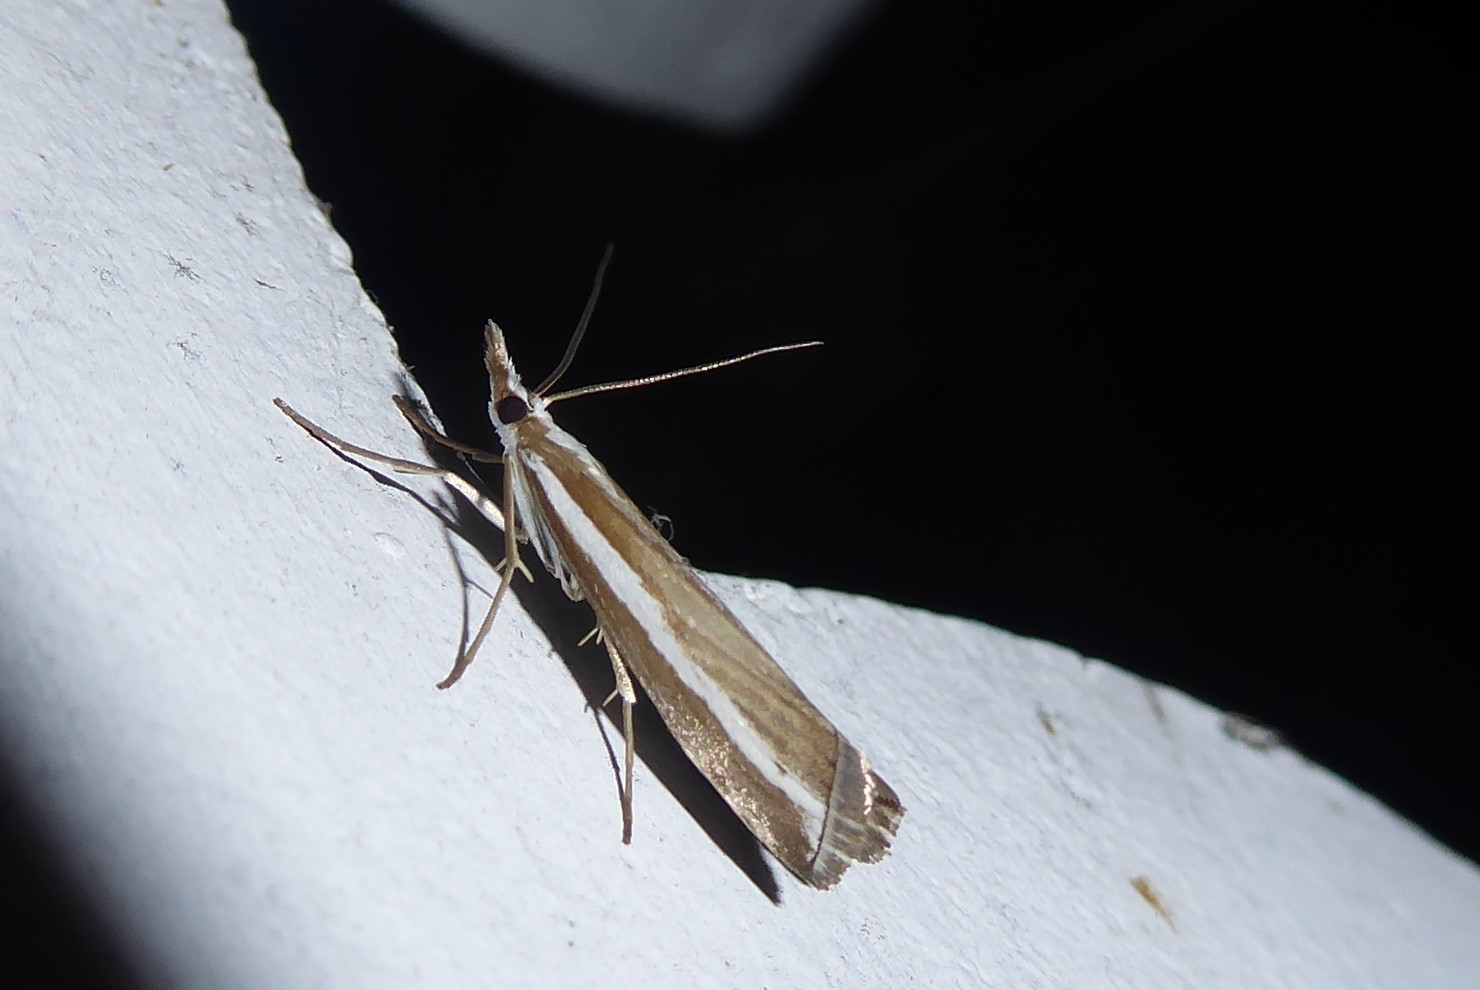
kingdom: Animalia
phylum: Arthropoda
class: Insecta
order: Lepidoptera
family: Crambidae
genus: Orocrambus
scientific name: Orocrambus vittellus
